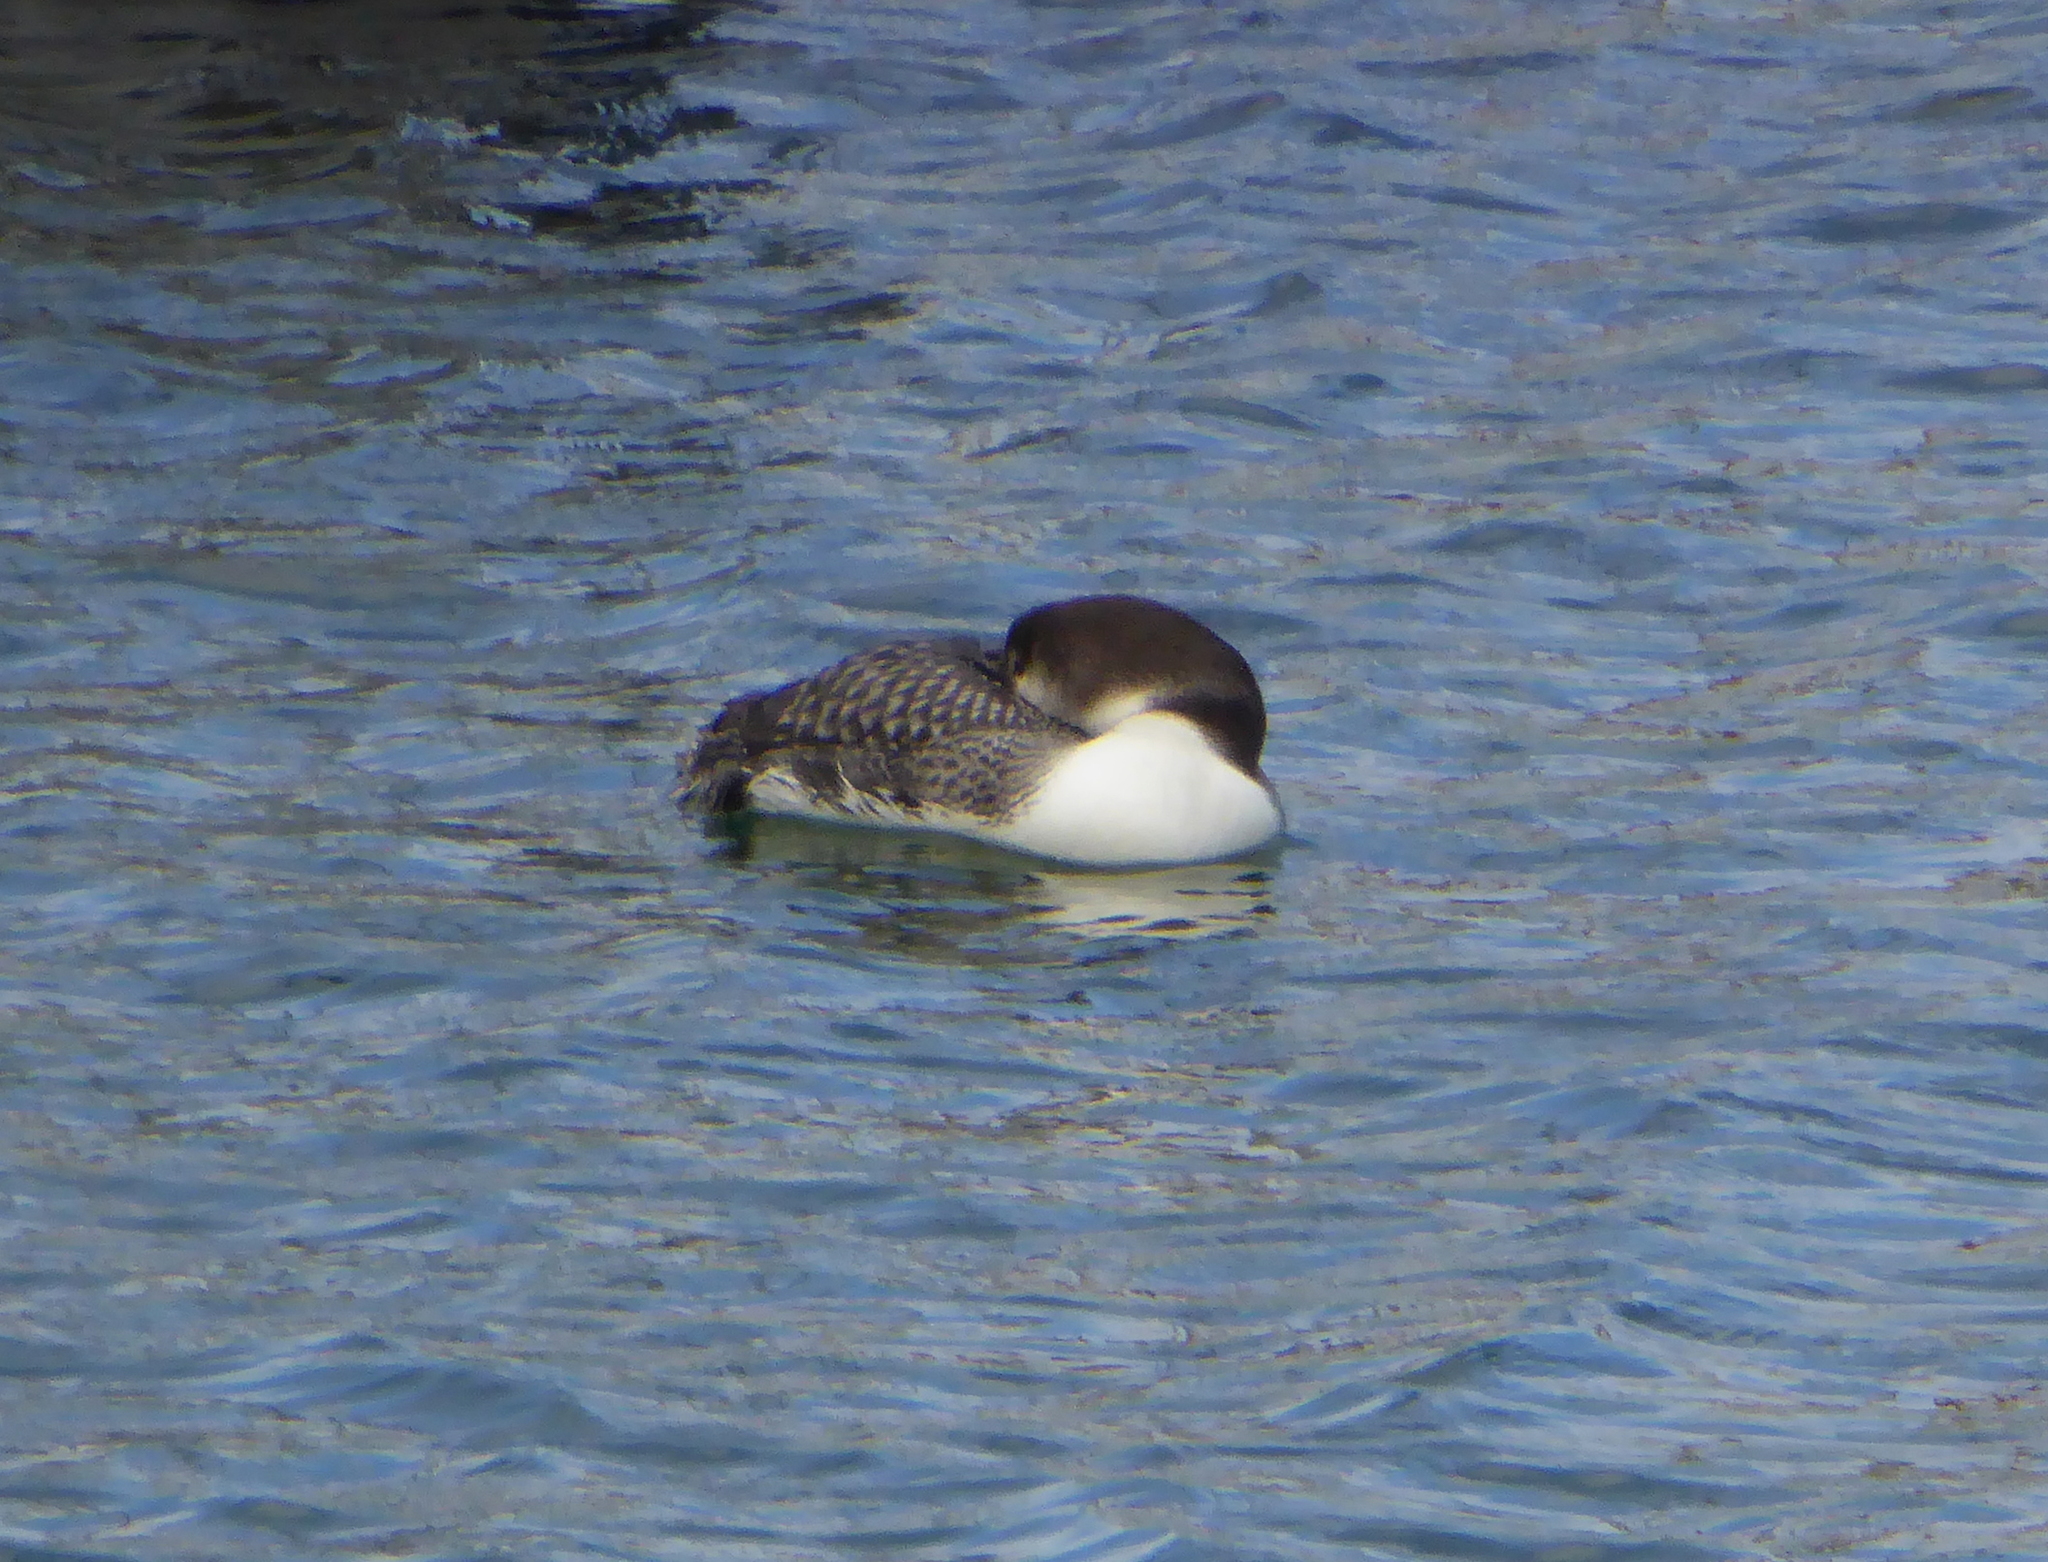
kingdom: Animalia
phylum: Chordata
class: Aves
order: Gaviiformes
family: Gaviidae
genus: Gavia
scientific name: Gavia immer
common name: Common loon
